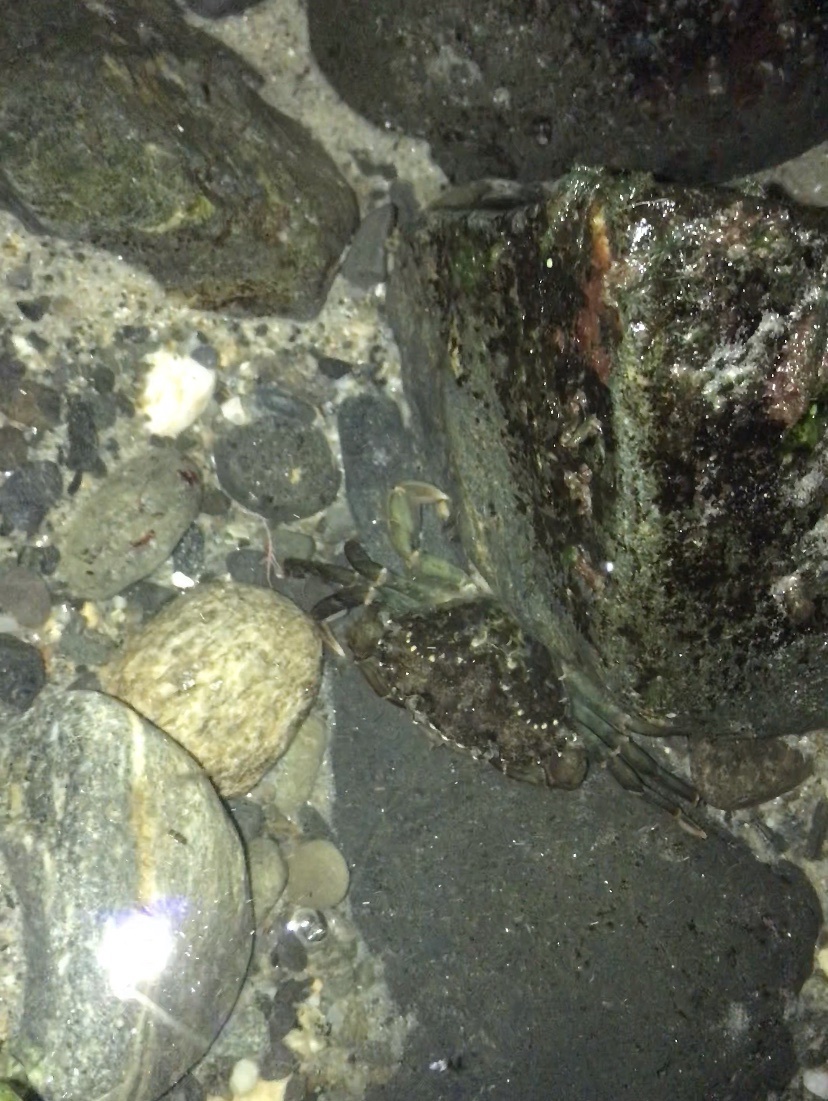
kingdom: Animalia
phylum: Arthropoda
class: Malacostraca
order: Decapoda
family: Carcinidae
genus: Carcinus
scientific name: Carcinus maenas
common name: European green crab
